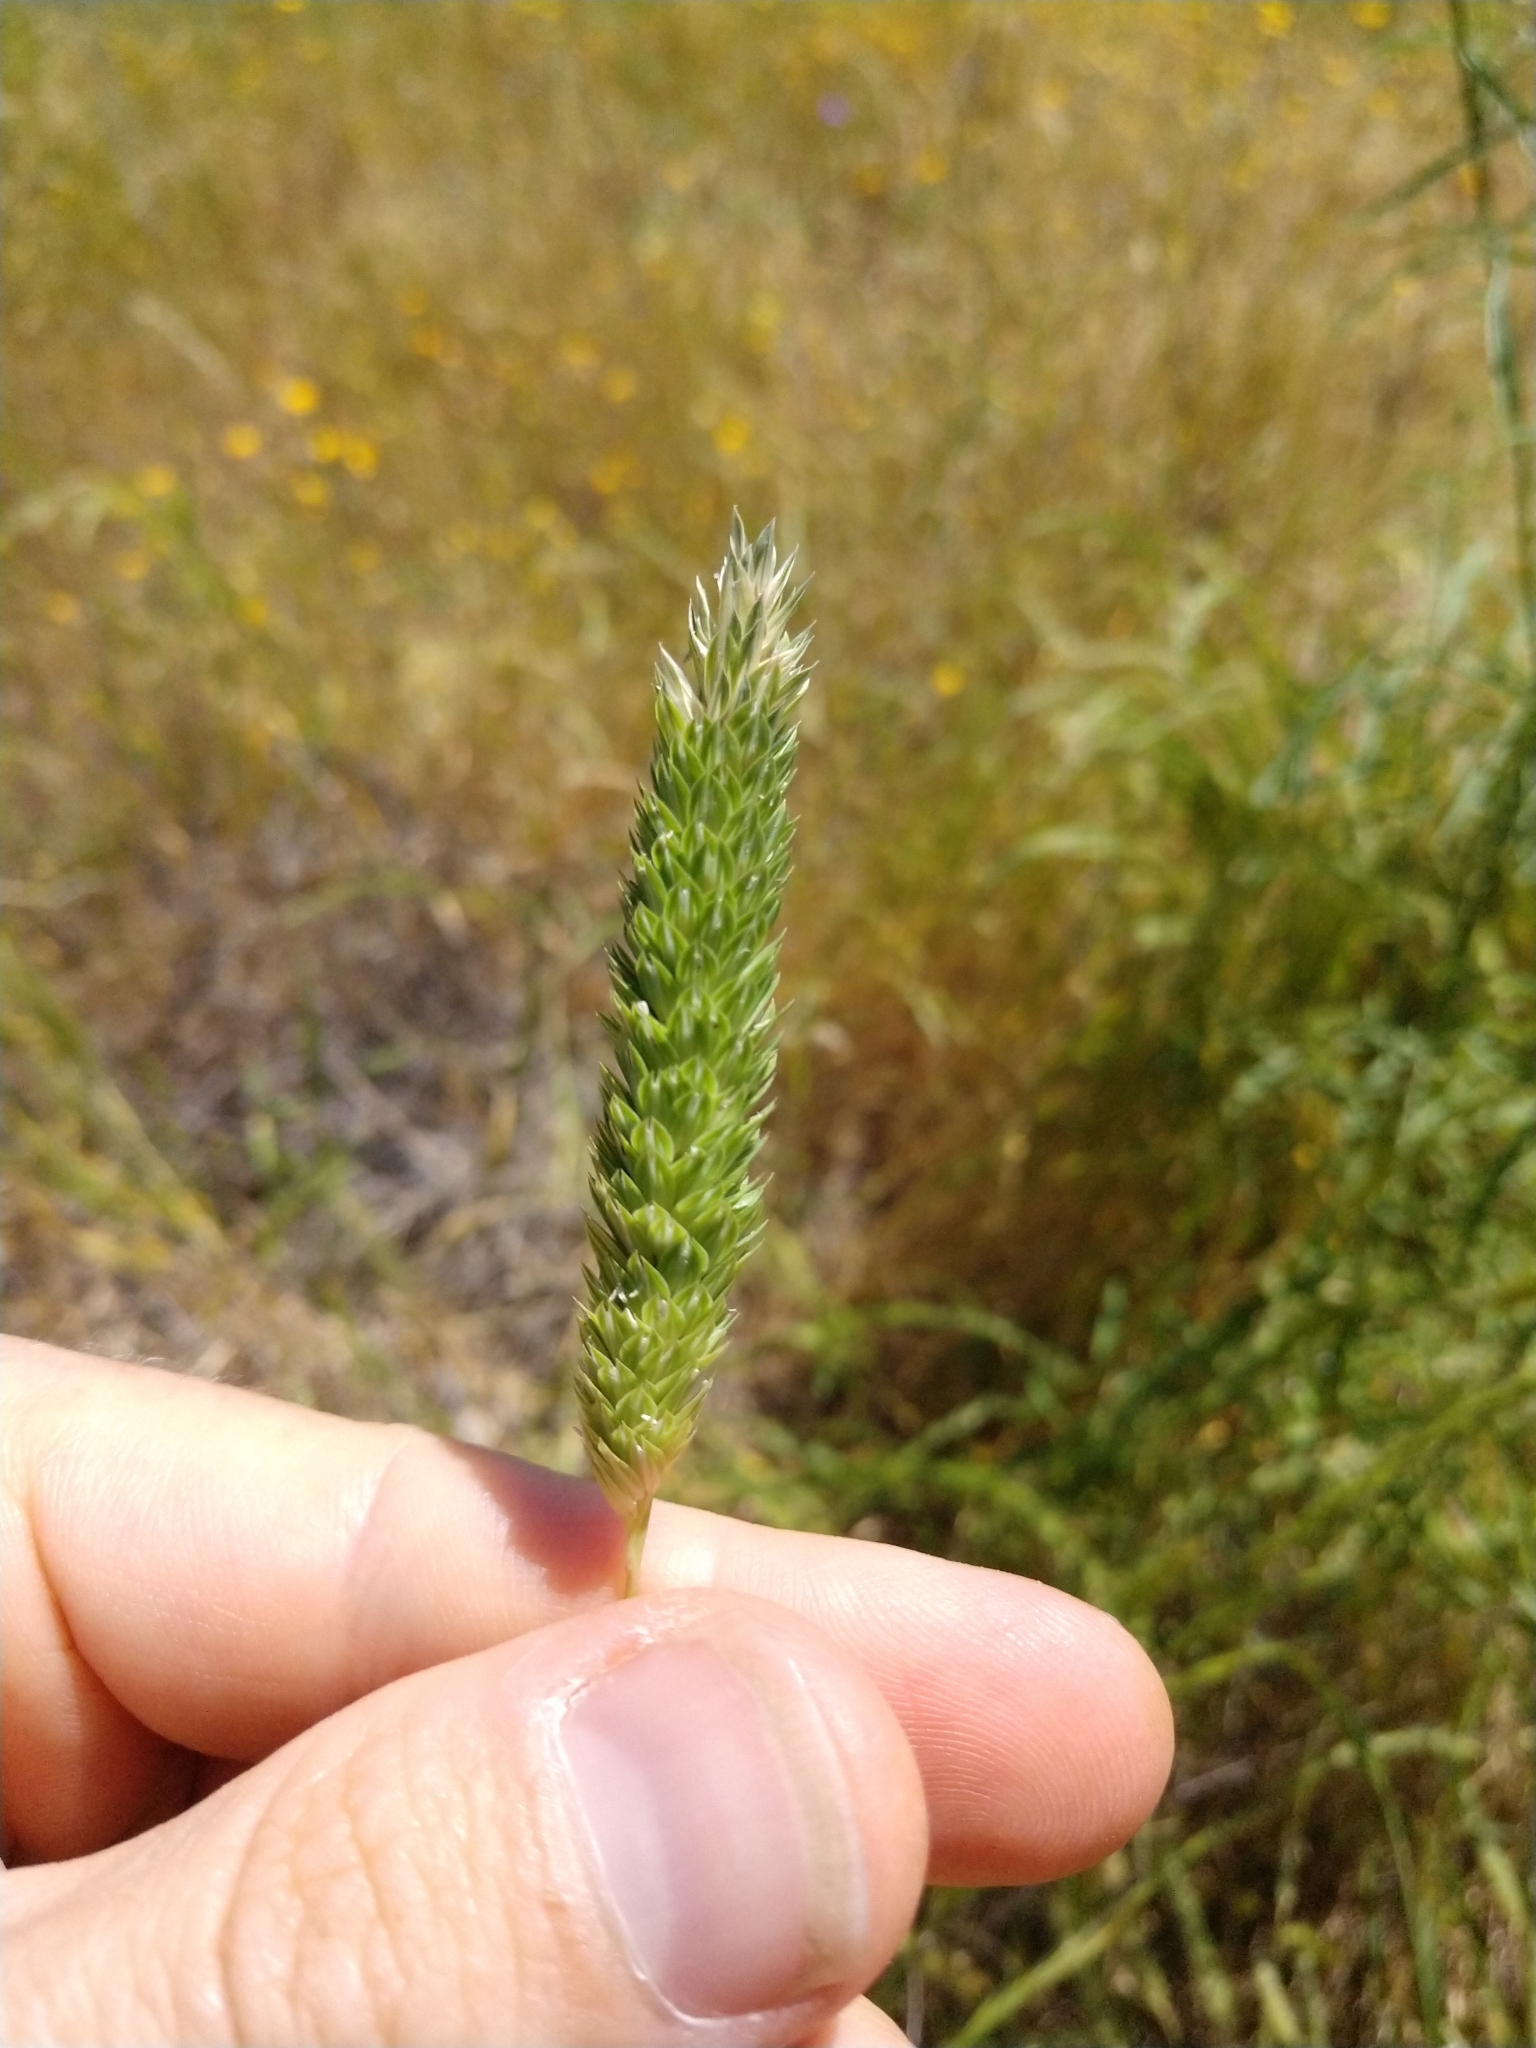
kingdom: Plantae
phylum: Tracheophyta
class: Liliopsida
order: Poales
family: Poaceae
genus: Phalaris
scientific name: Phalaris caroliniana
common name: May grass
